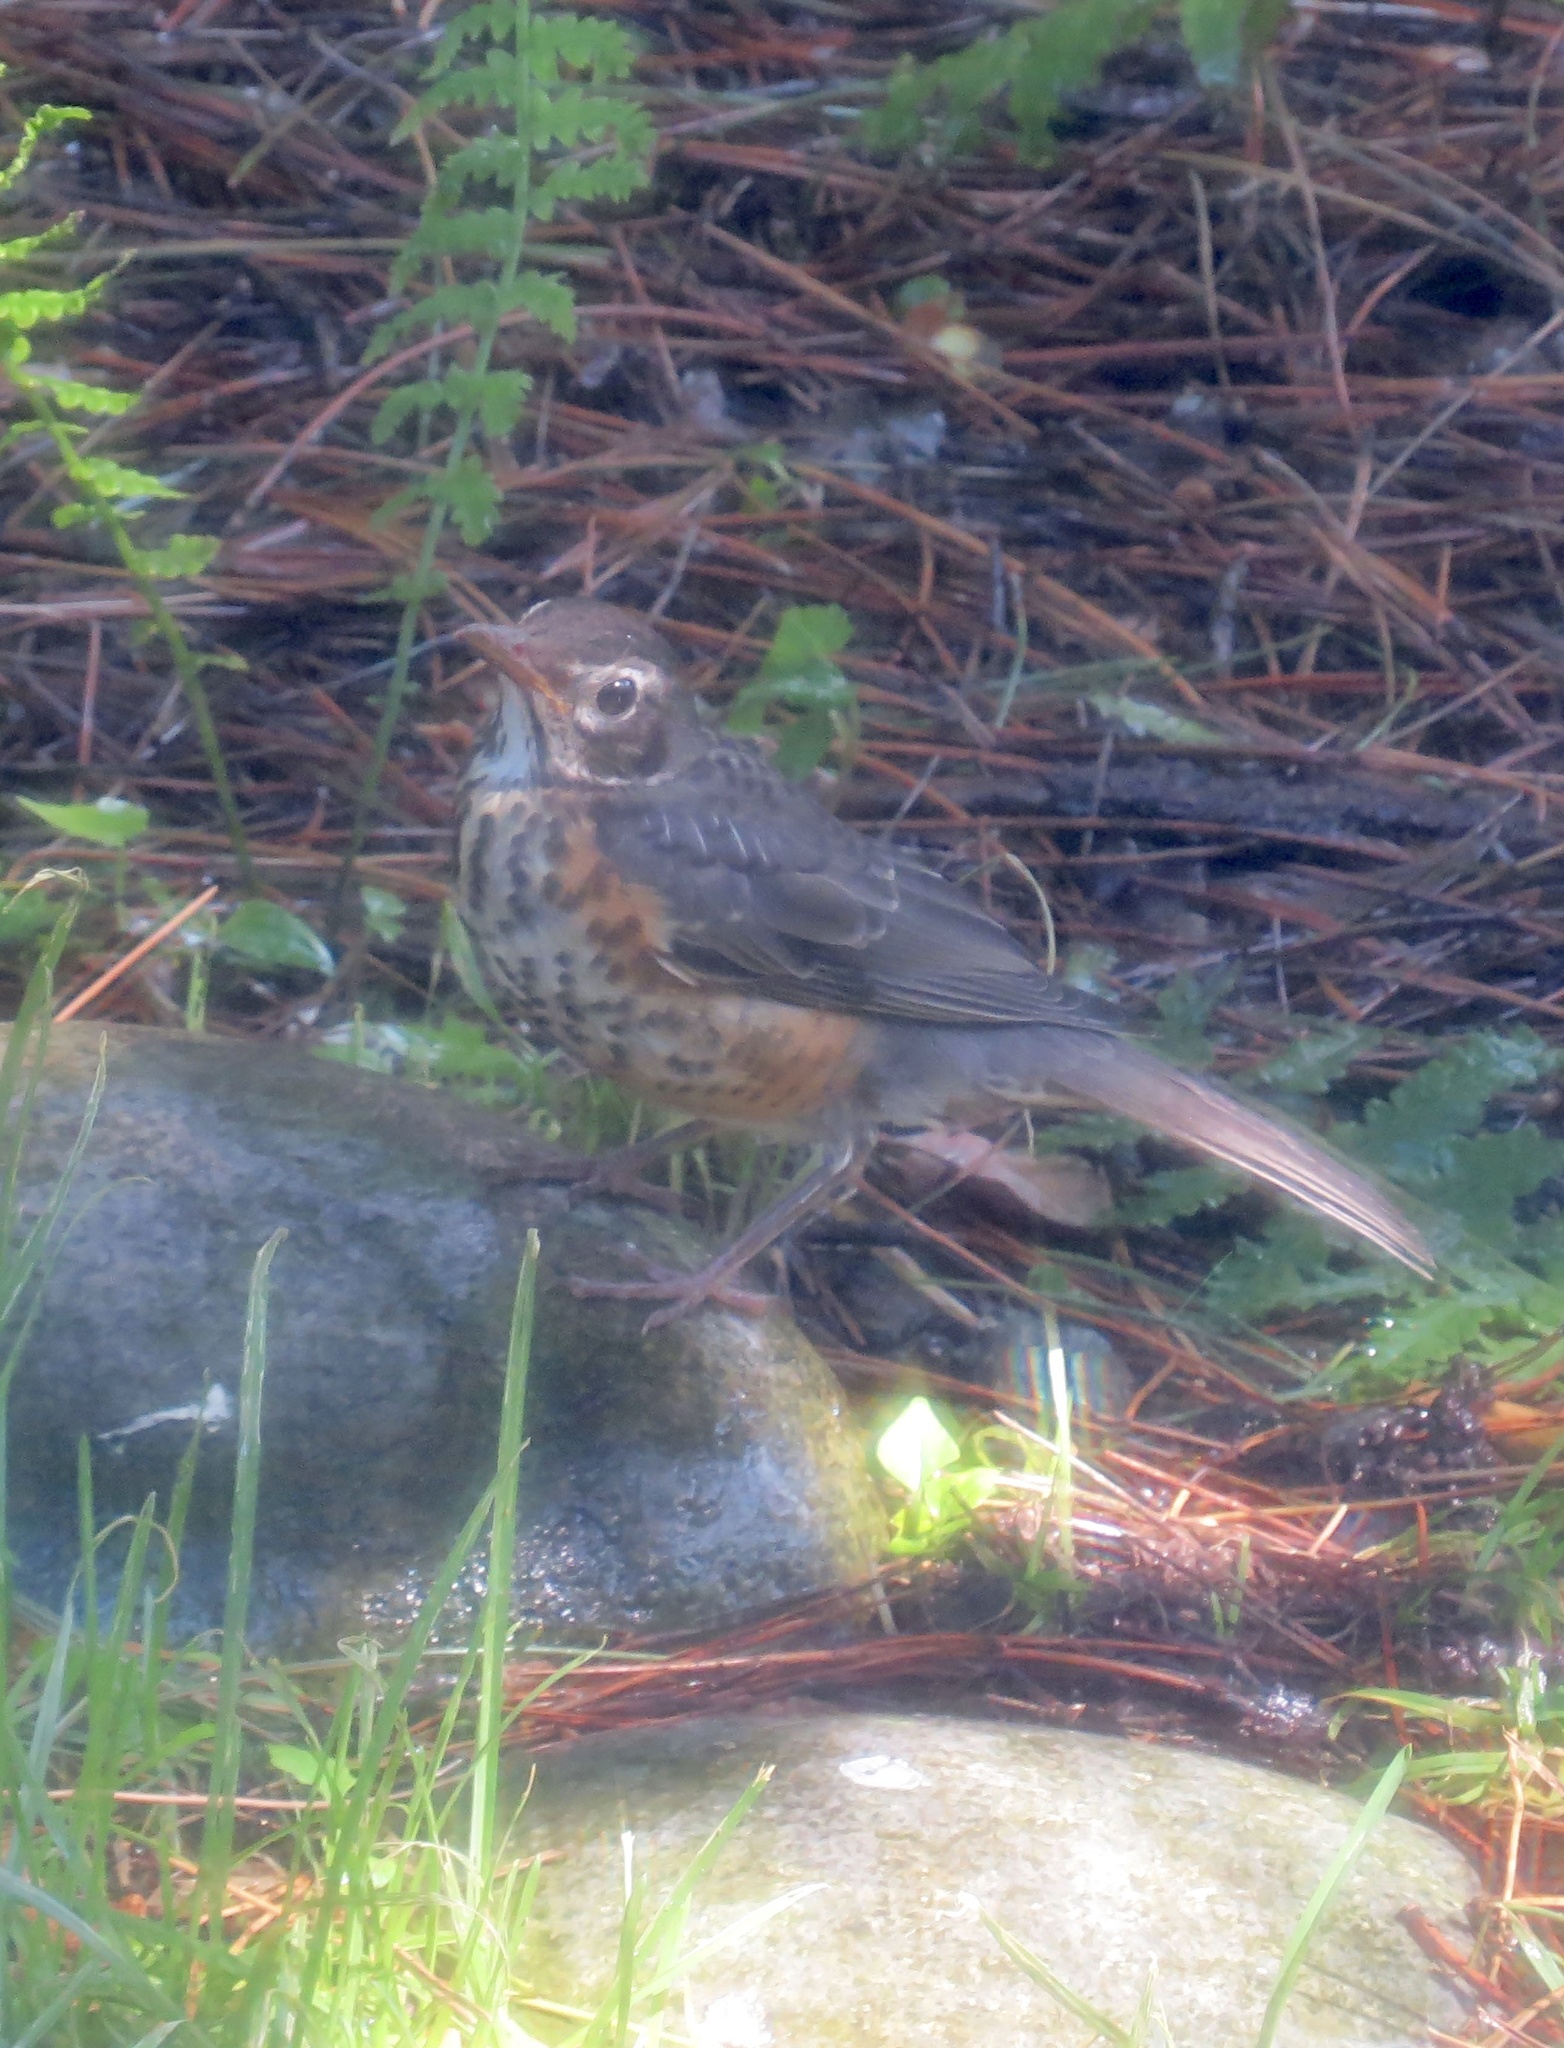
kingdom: Animalia
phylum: Chordata
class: Aves
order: Passeriformes
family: Turdidae
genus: Turdus
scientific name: Turdus migratorius
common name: American robin
